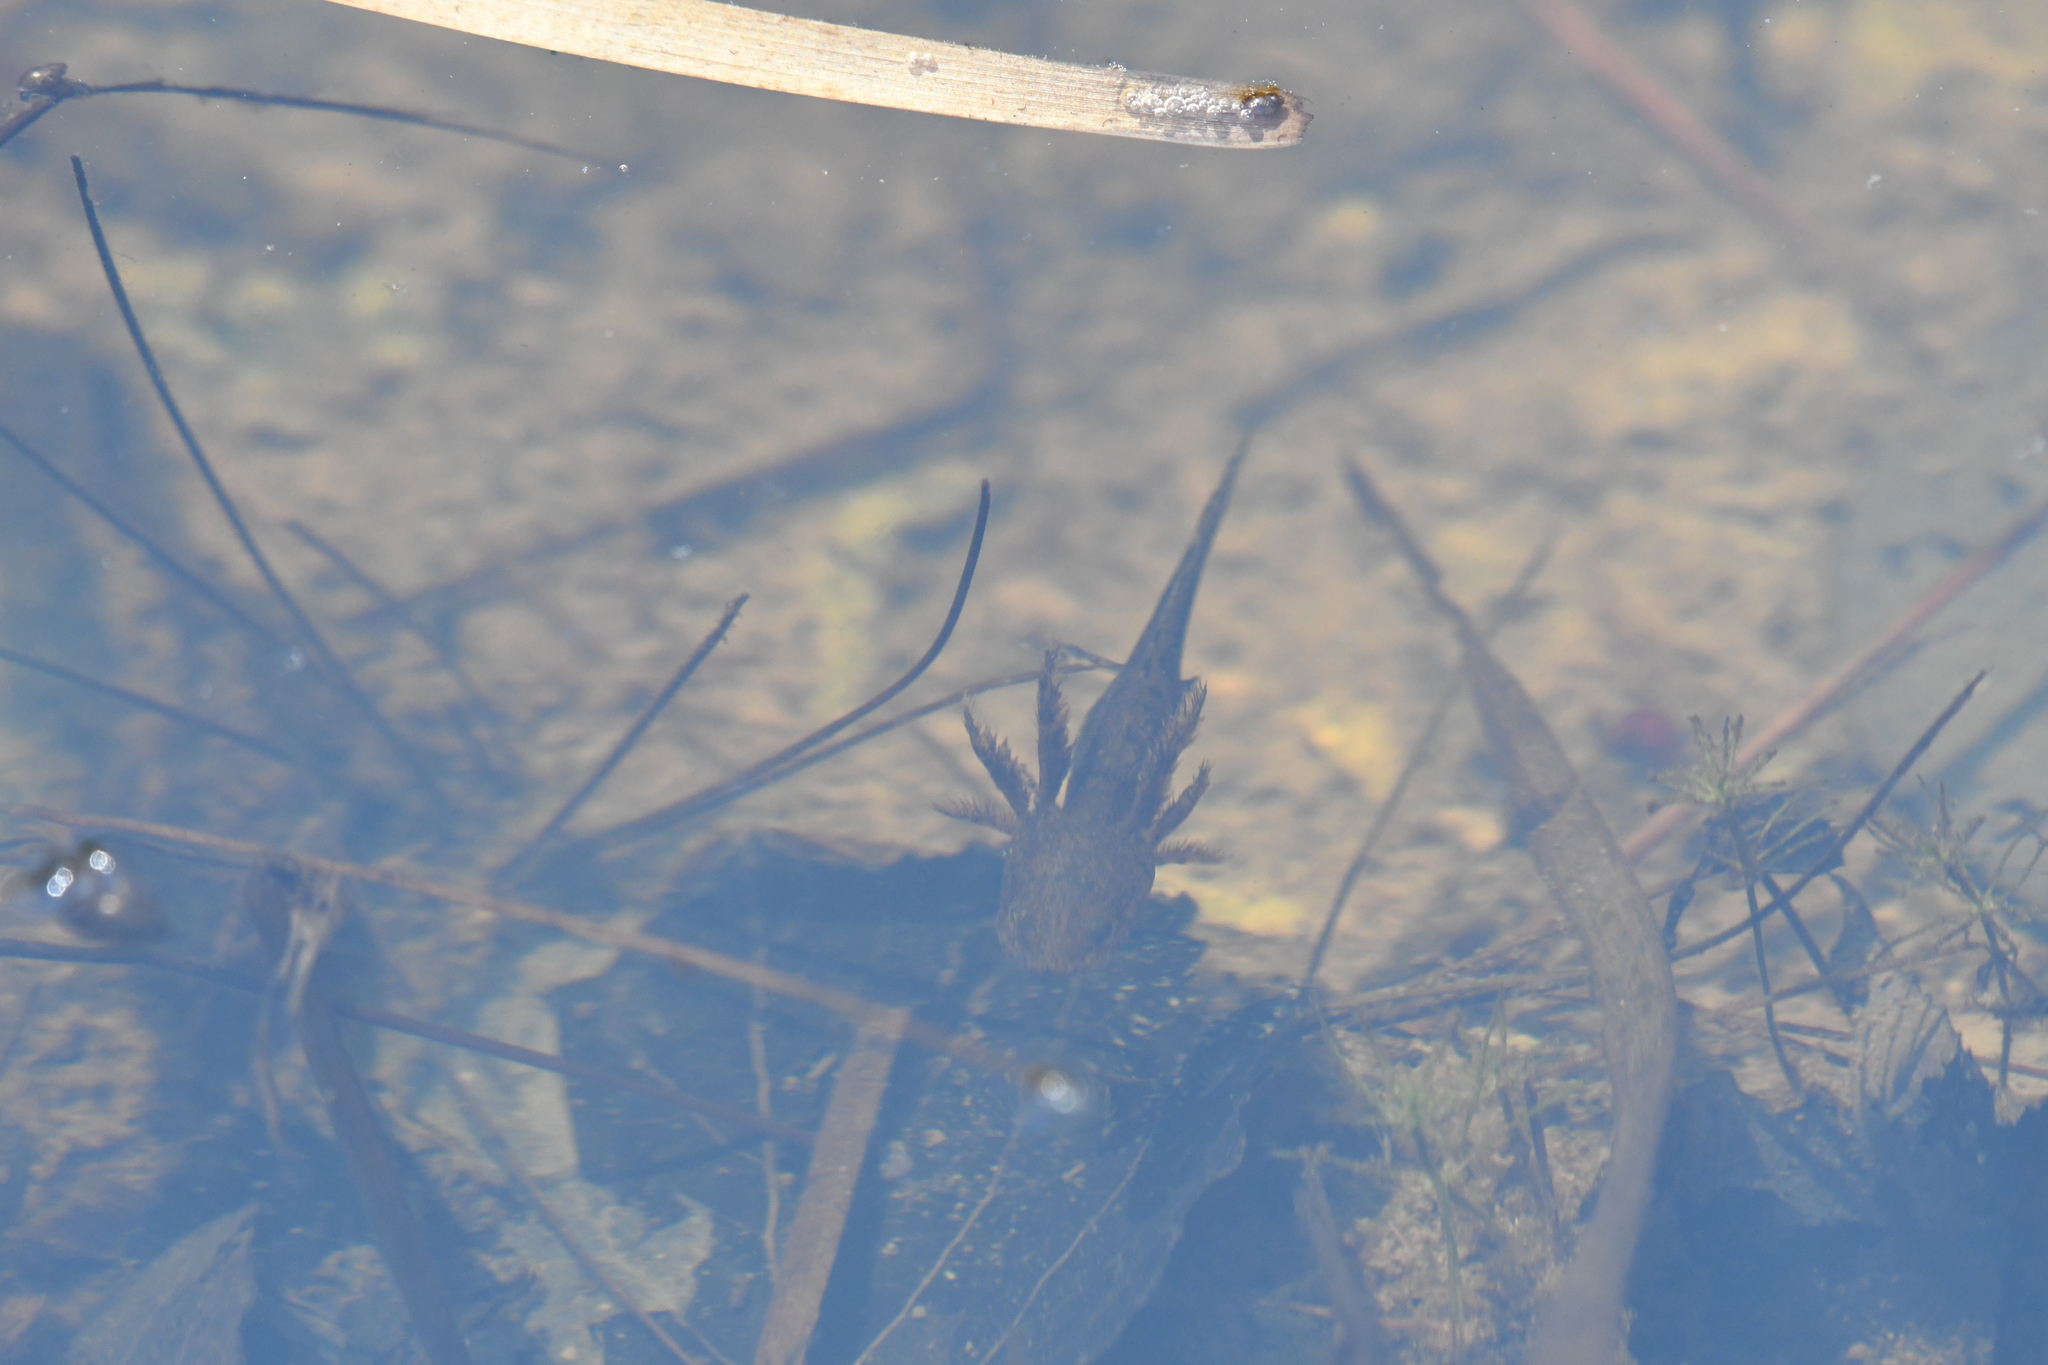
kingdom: Animalia
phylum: Chordata
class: Amphibia
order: Caudata
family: Salamandridae
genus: Notophthalmus
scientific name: Notophthalmus viridescens
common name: Eastern newt
